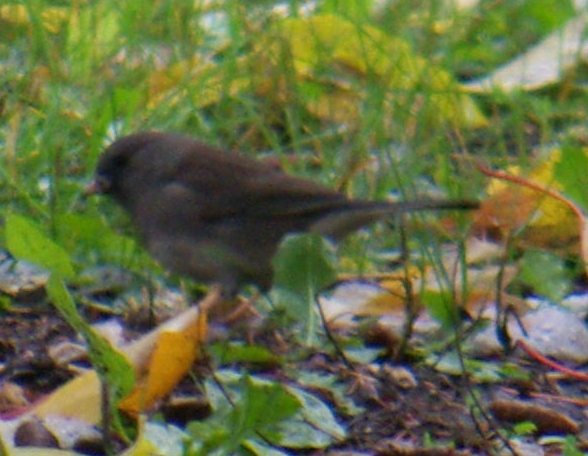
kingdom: Animalia
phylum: Chordata
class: Aves
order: Passeriformes
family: Passerellidae
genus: Junco
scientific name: Junco hyemalis
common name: Dark-eyed junco
